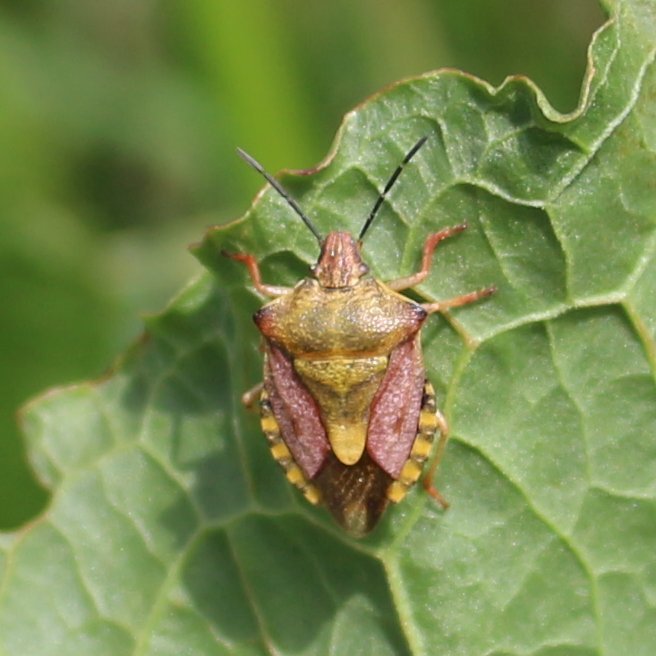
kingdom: Animalia
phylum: Arthropoda
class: Insecta
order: Hemiptera
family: Pentatomidae
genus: Carpocoris
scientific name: Carpocoris purpureipennis
